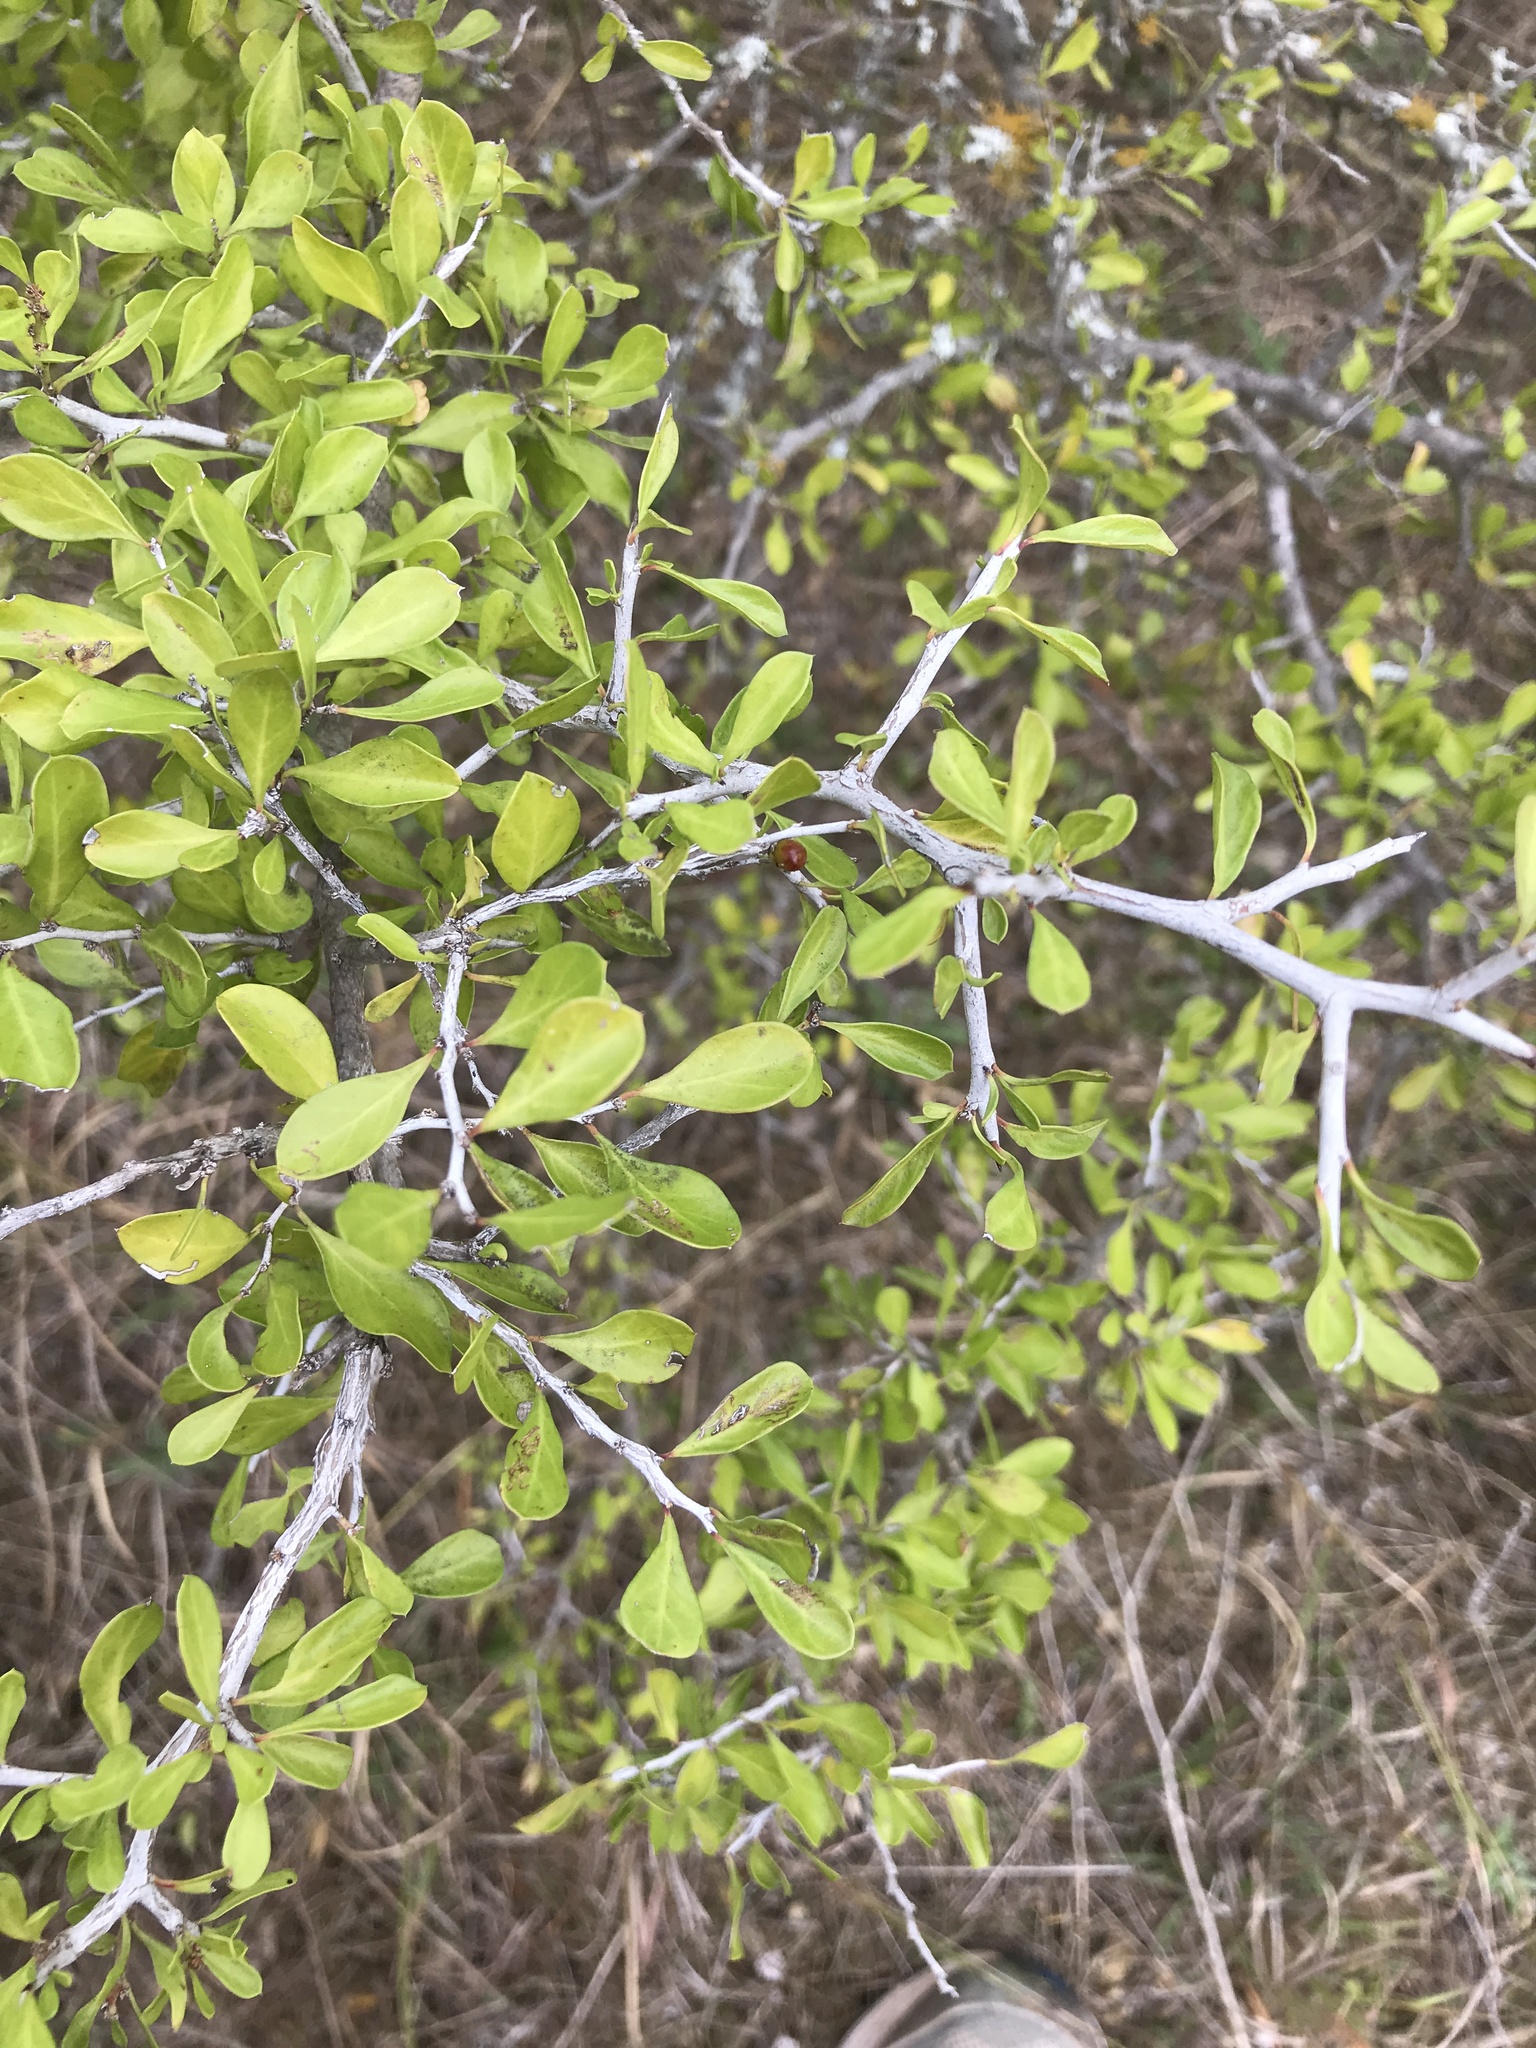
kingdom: Plantae
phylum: Tracheophyta
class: Magnoliopsida
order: Rosales
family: Rhamnaceae
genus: Condalia
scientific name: Condalia hookeri
